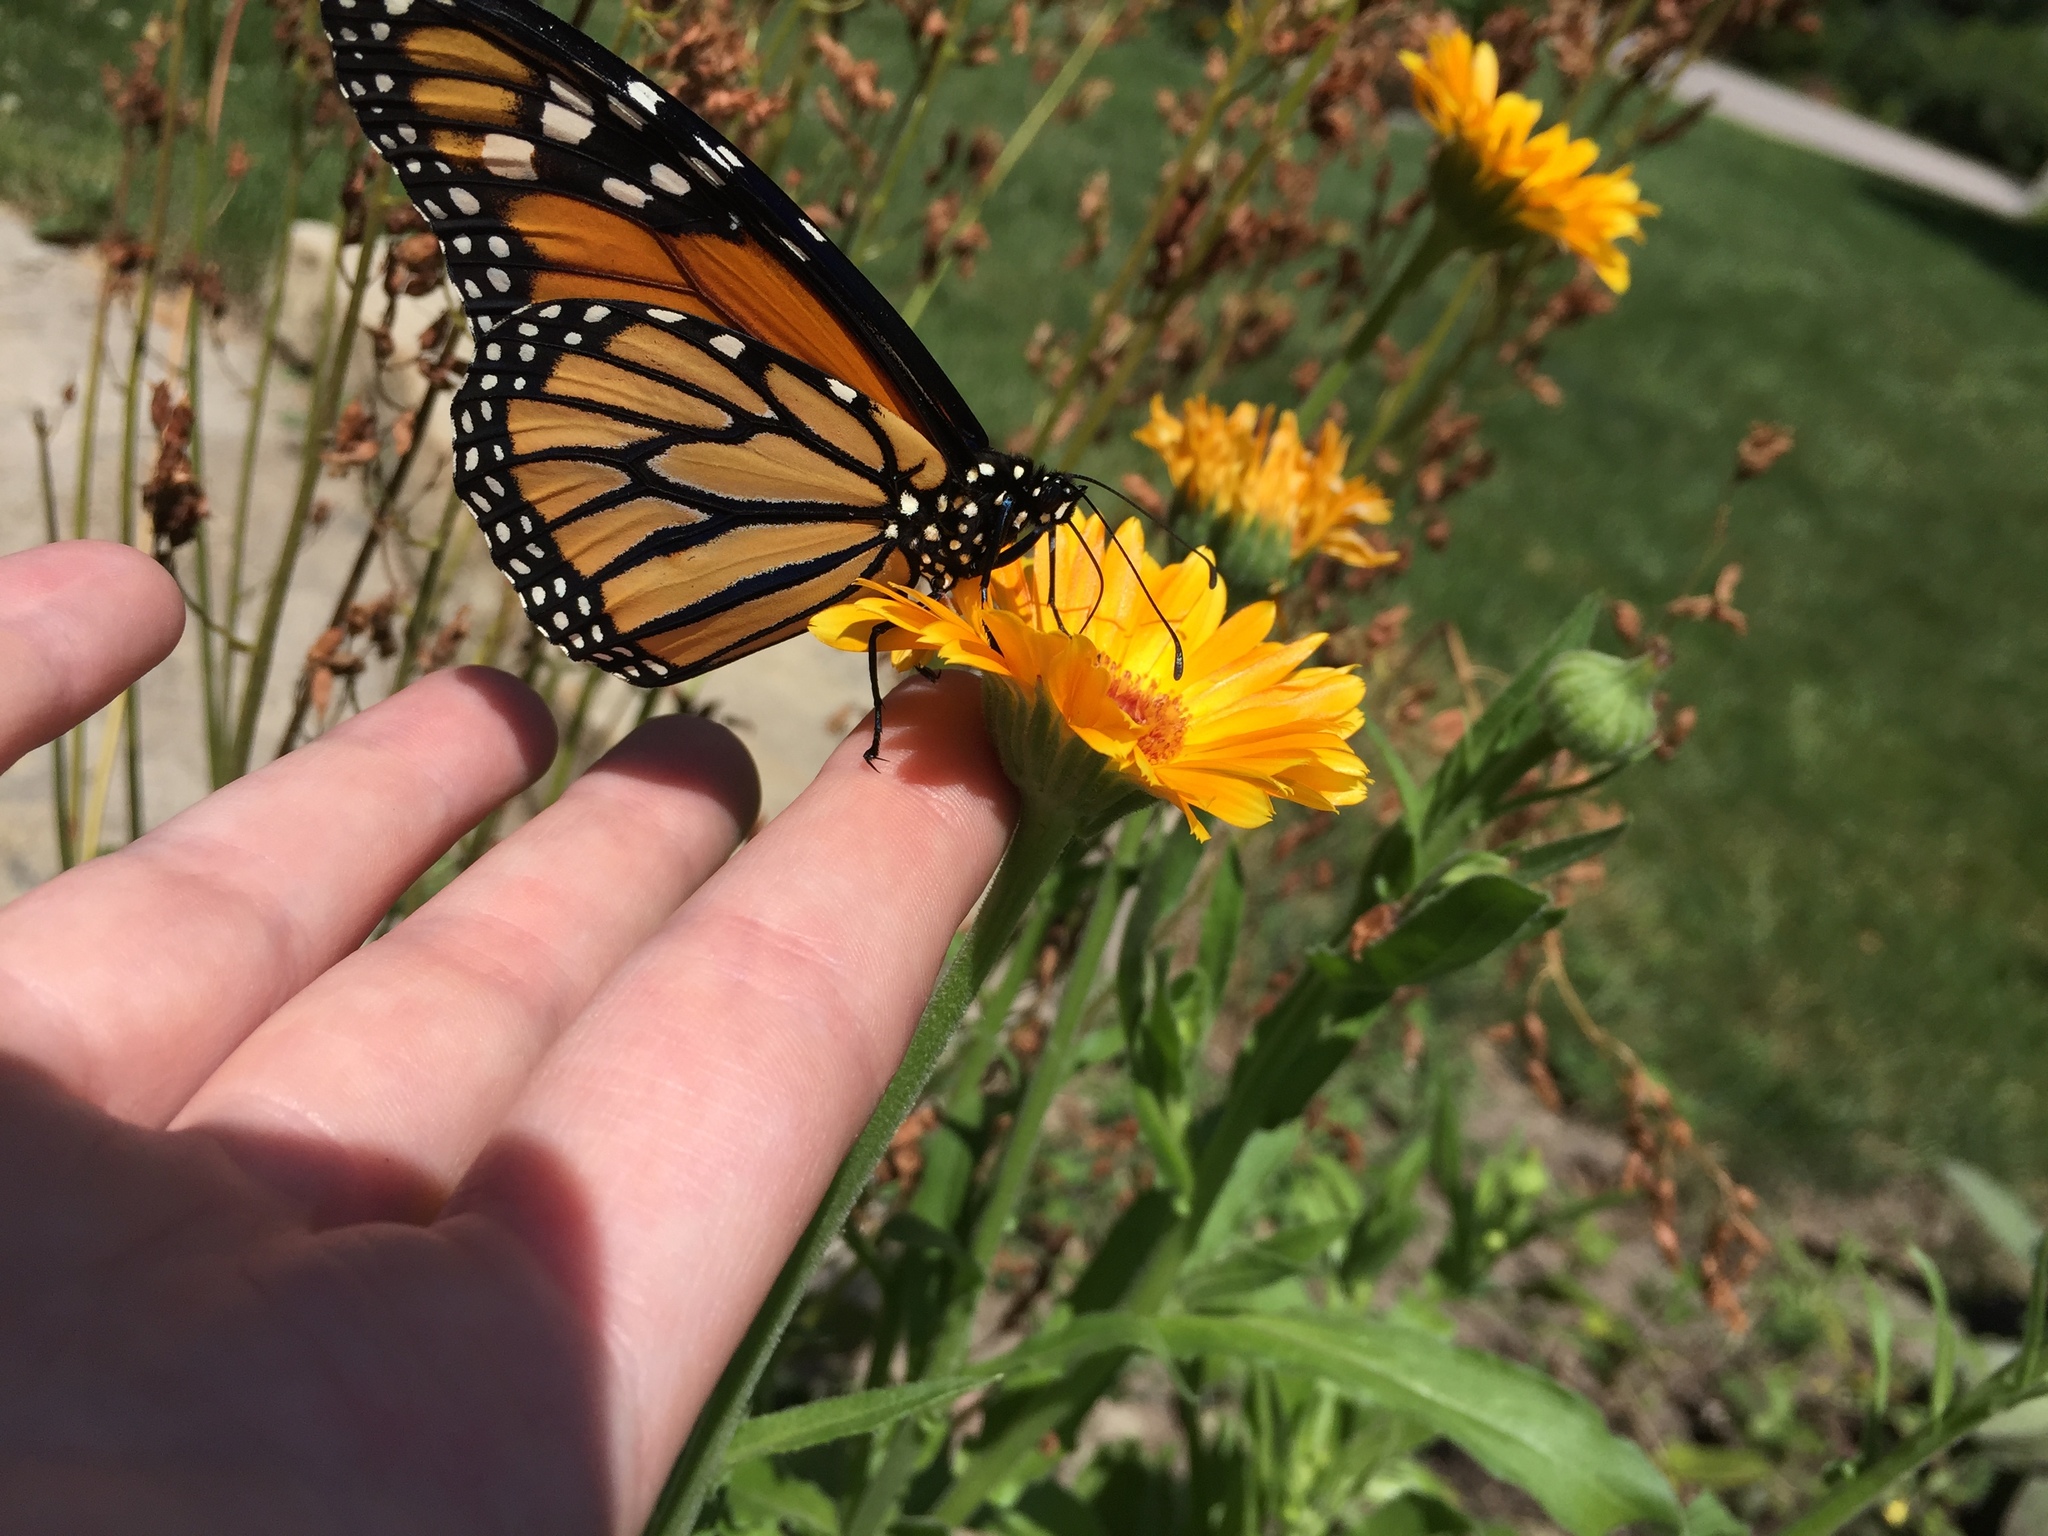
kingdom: Animalia
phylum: Arthropoda
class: Insecta
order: Lepidoptera
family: Nymphalidae
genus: Danaus
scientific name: Danaus plexippus
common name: Monarch
